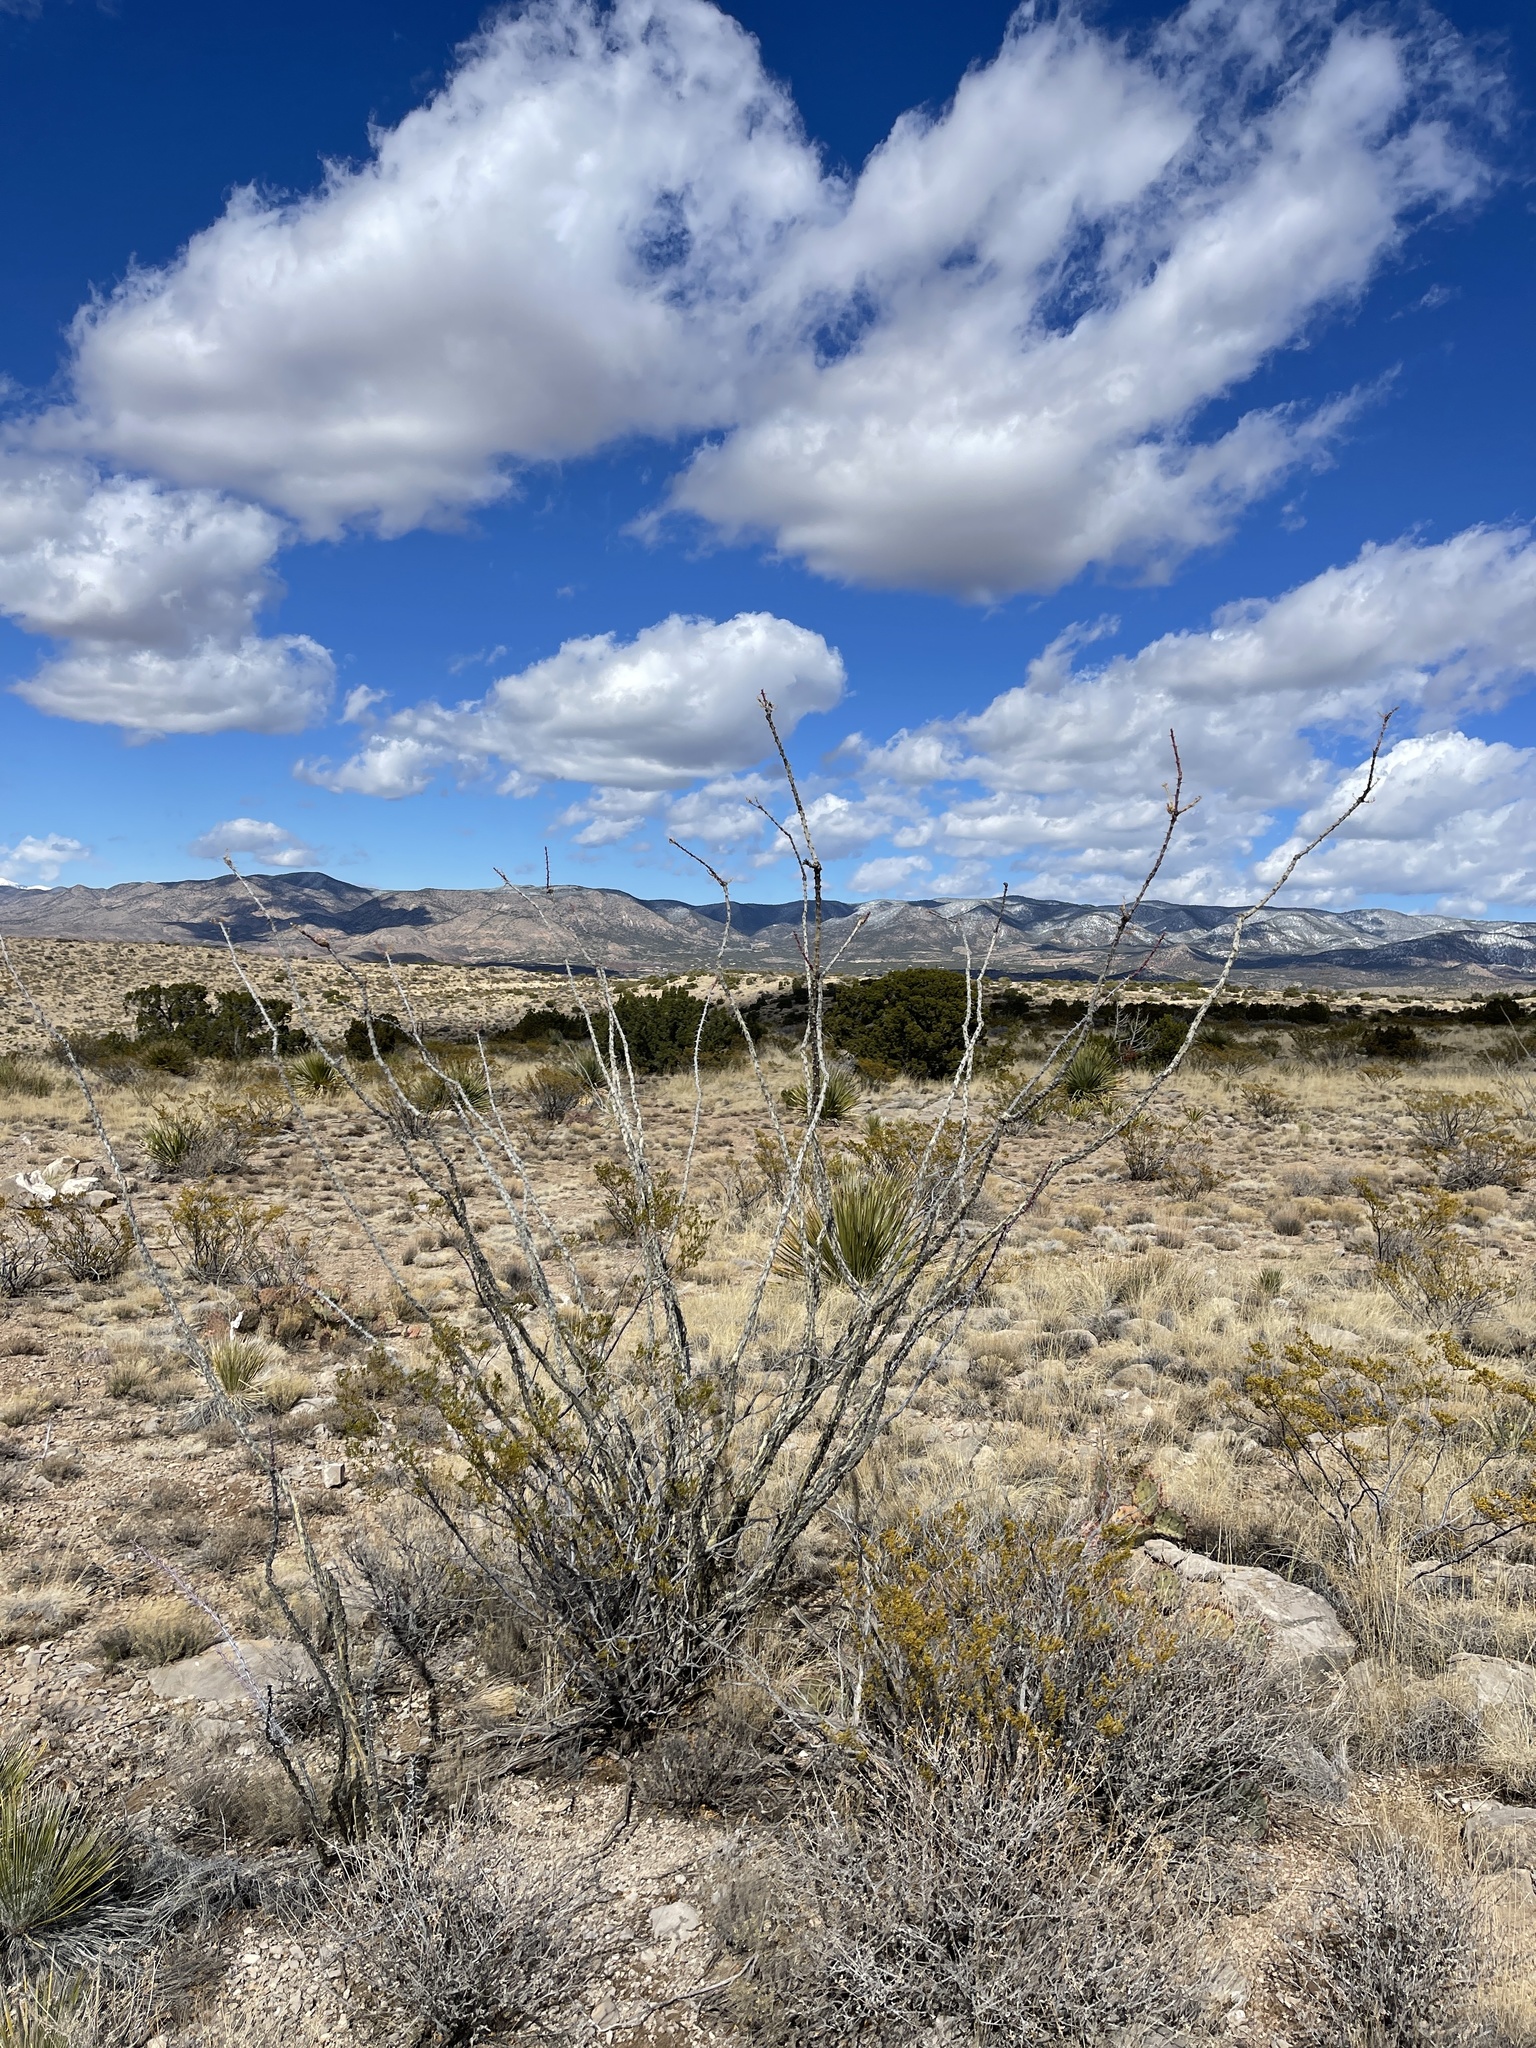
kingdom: Plantae
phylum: Tracheophyta
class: Magnoliopsida
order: Ericales
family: Fouquieriaceae
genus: Fouquieria
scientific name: Fouquieria splendens
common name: Vine-cactus
